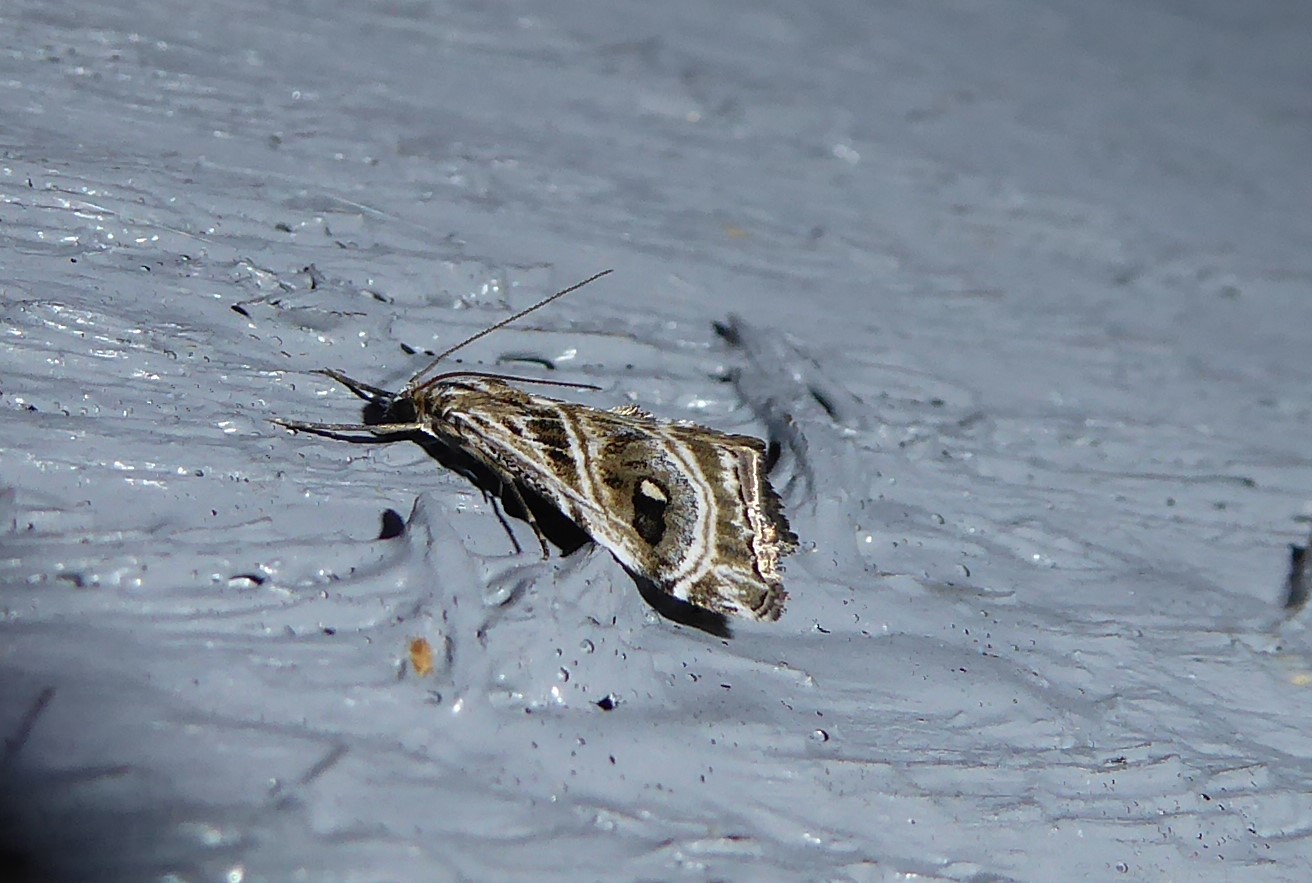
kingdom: Animalia
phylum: Arthropoda
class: Insecta
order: Lepidoptera
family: Crambidae
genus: Gadira
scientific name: Gadira acerella
